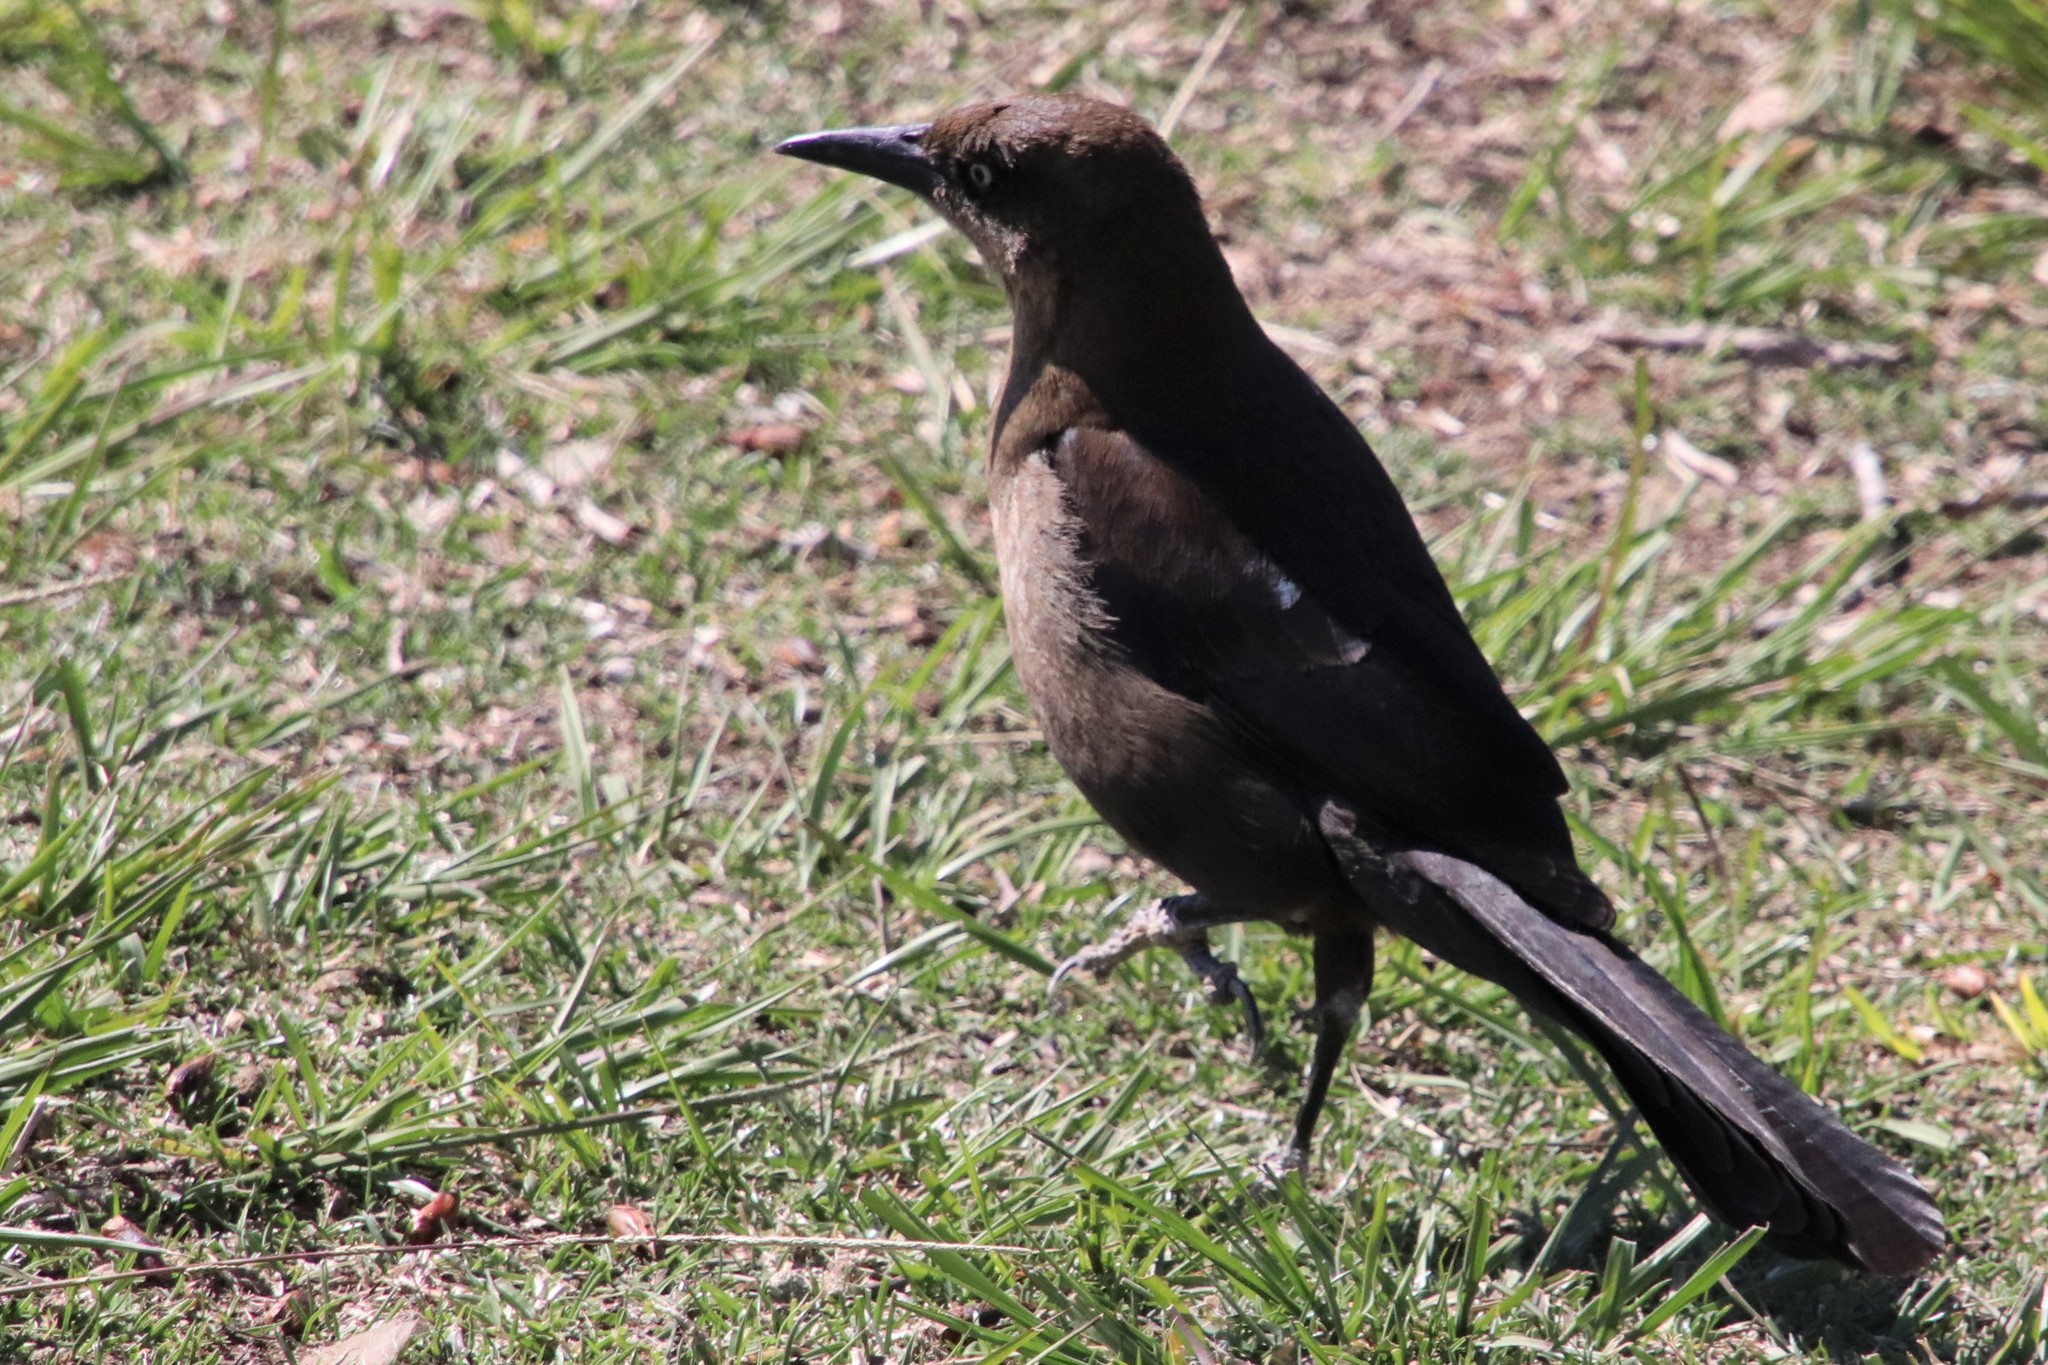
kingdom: Animalia
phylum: Chordata
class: Aves
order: Passeriformes
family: Icteridae
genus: Quiscalus
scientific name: Quiscalus mexicanus
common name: Great-tailed grackle
